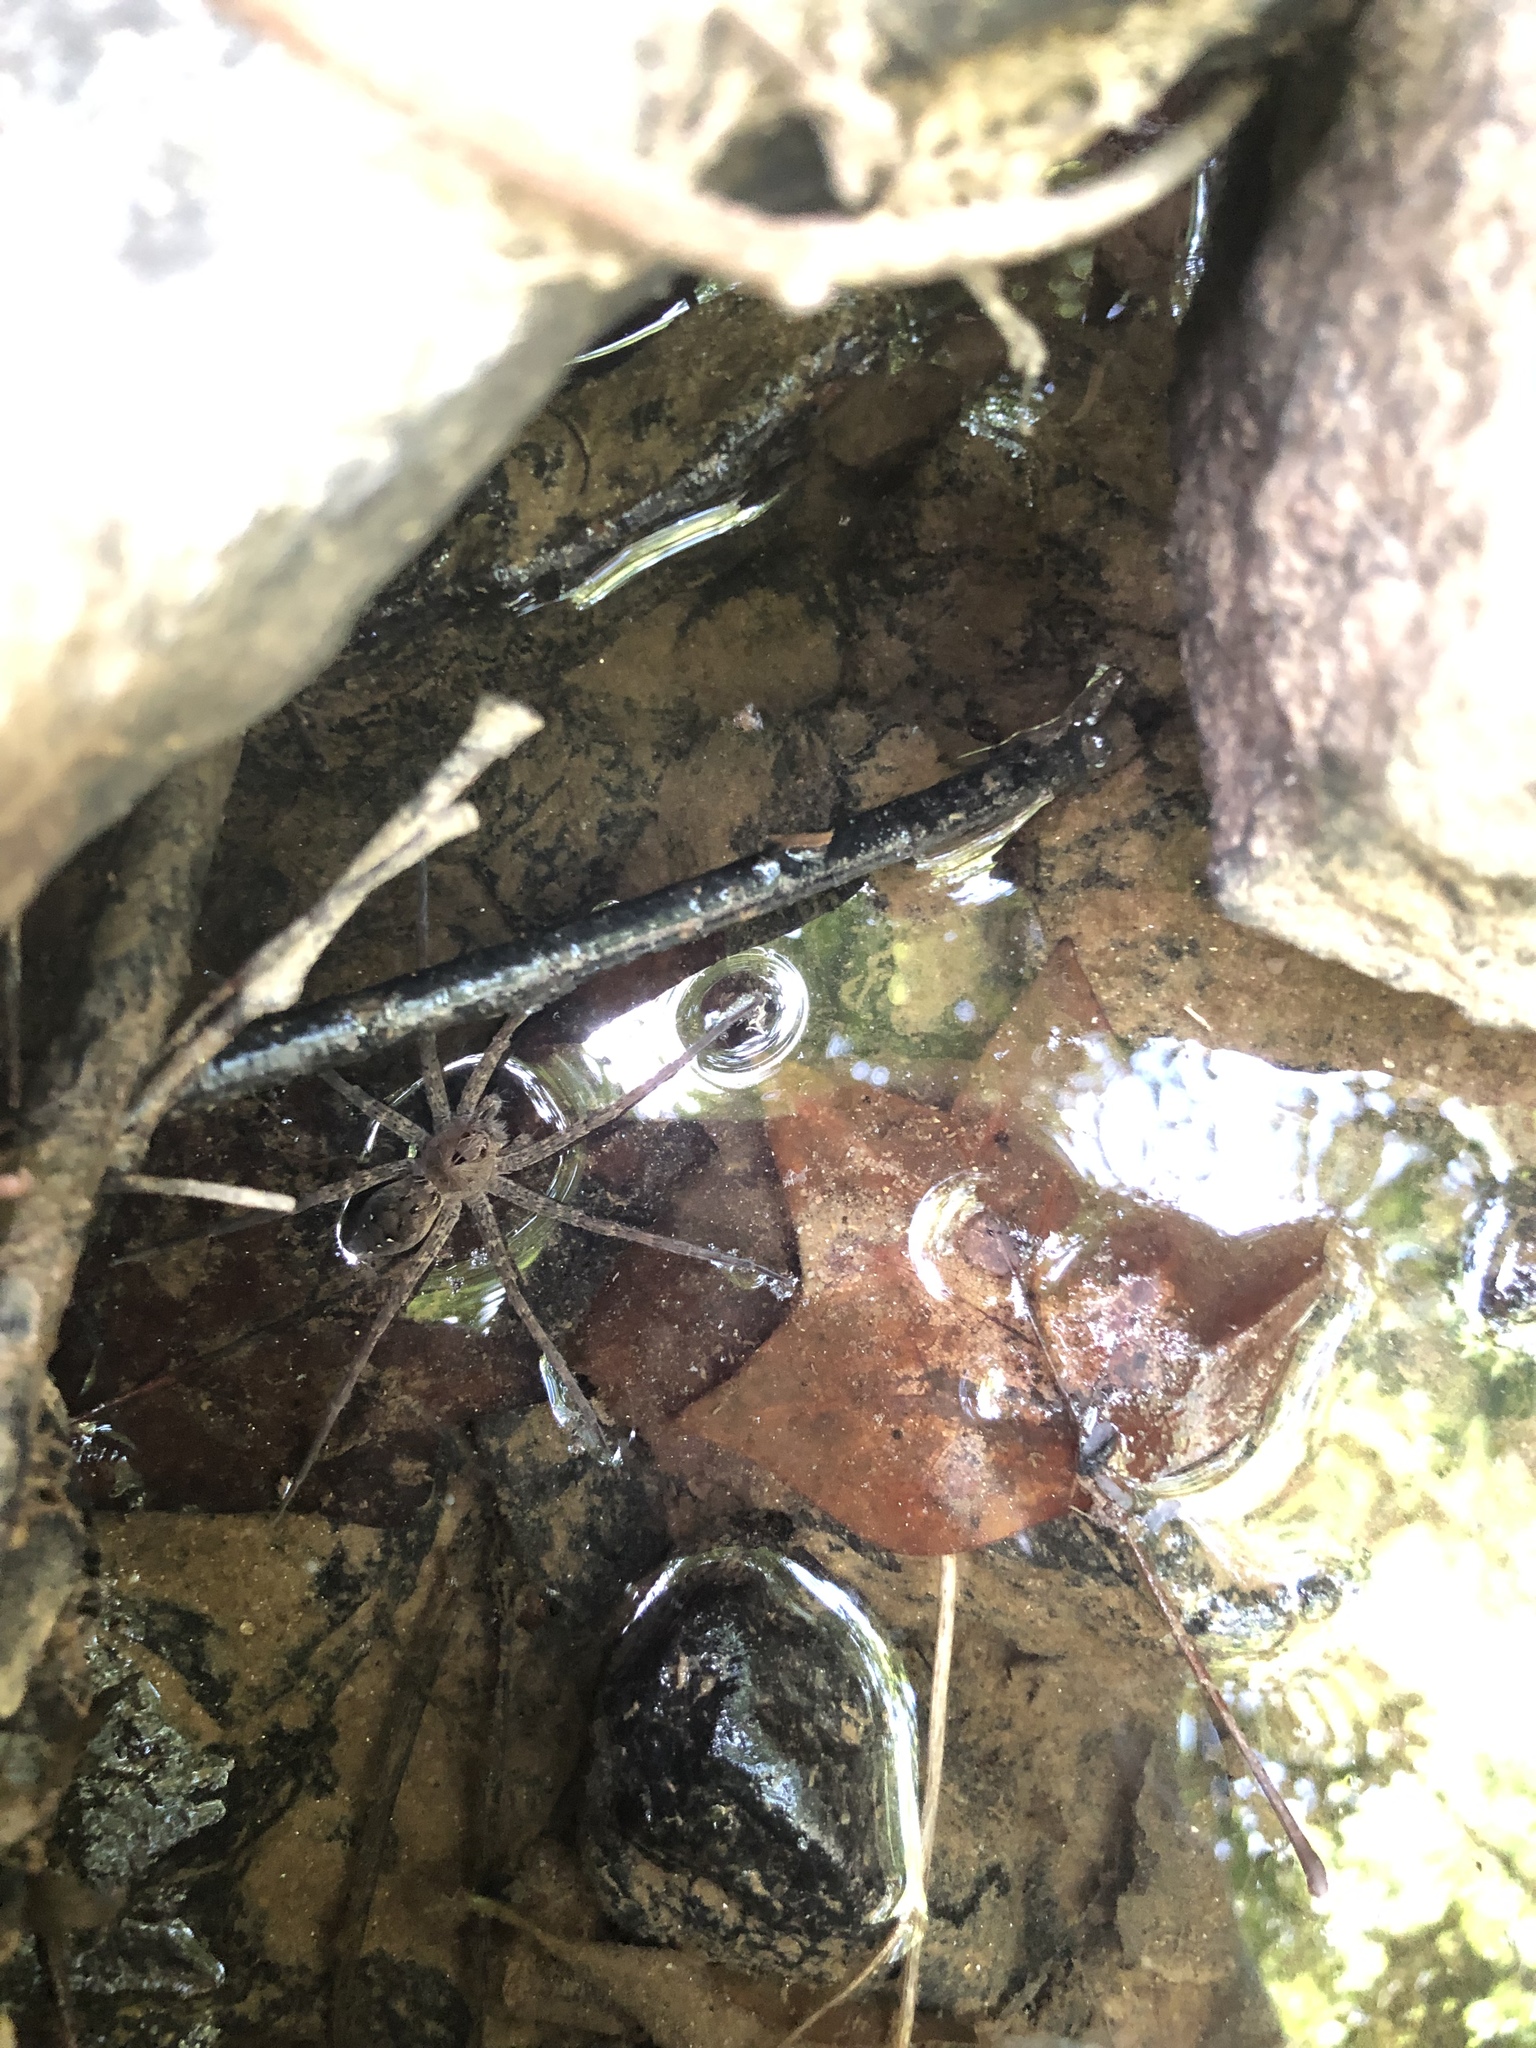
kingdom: Animalia
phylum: Arthropoda
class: Arachnida
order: Araneae
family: Pisauridae
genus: Dolomedes
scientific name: Dolomedes vittatus
